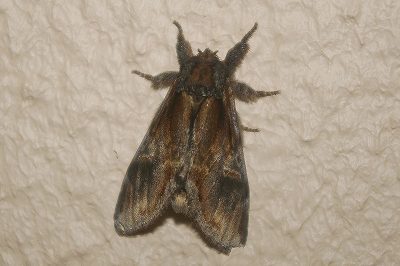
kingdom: Animalia
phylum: Arthropoda
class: Insecta
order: Lepidoptera
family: Notodontidae
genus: Notodonta
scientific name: Notodonta stigmatica
